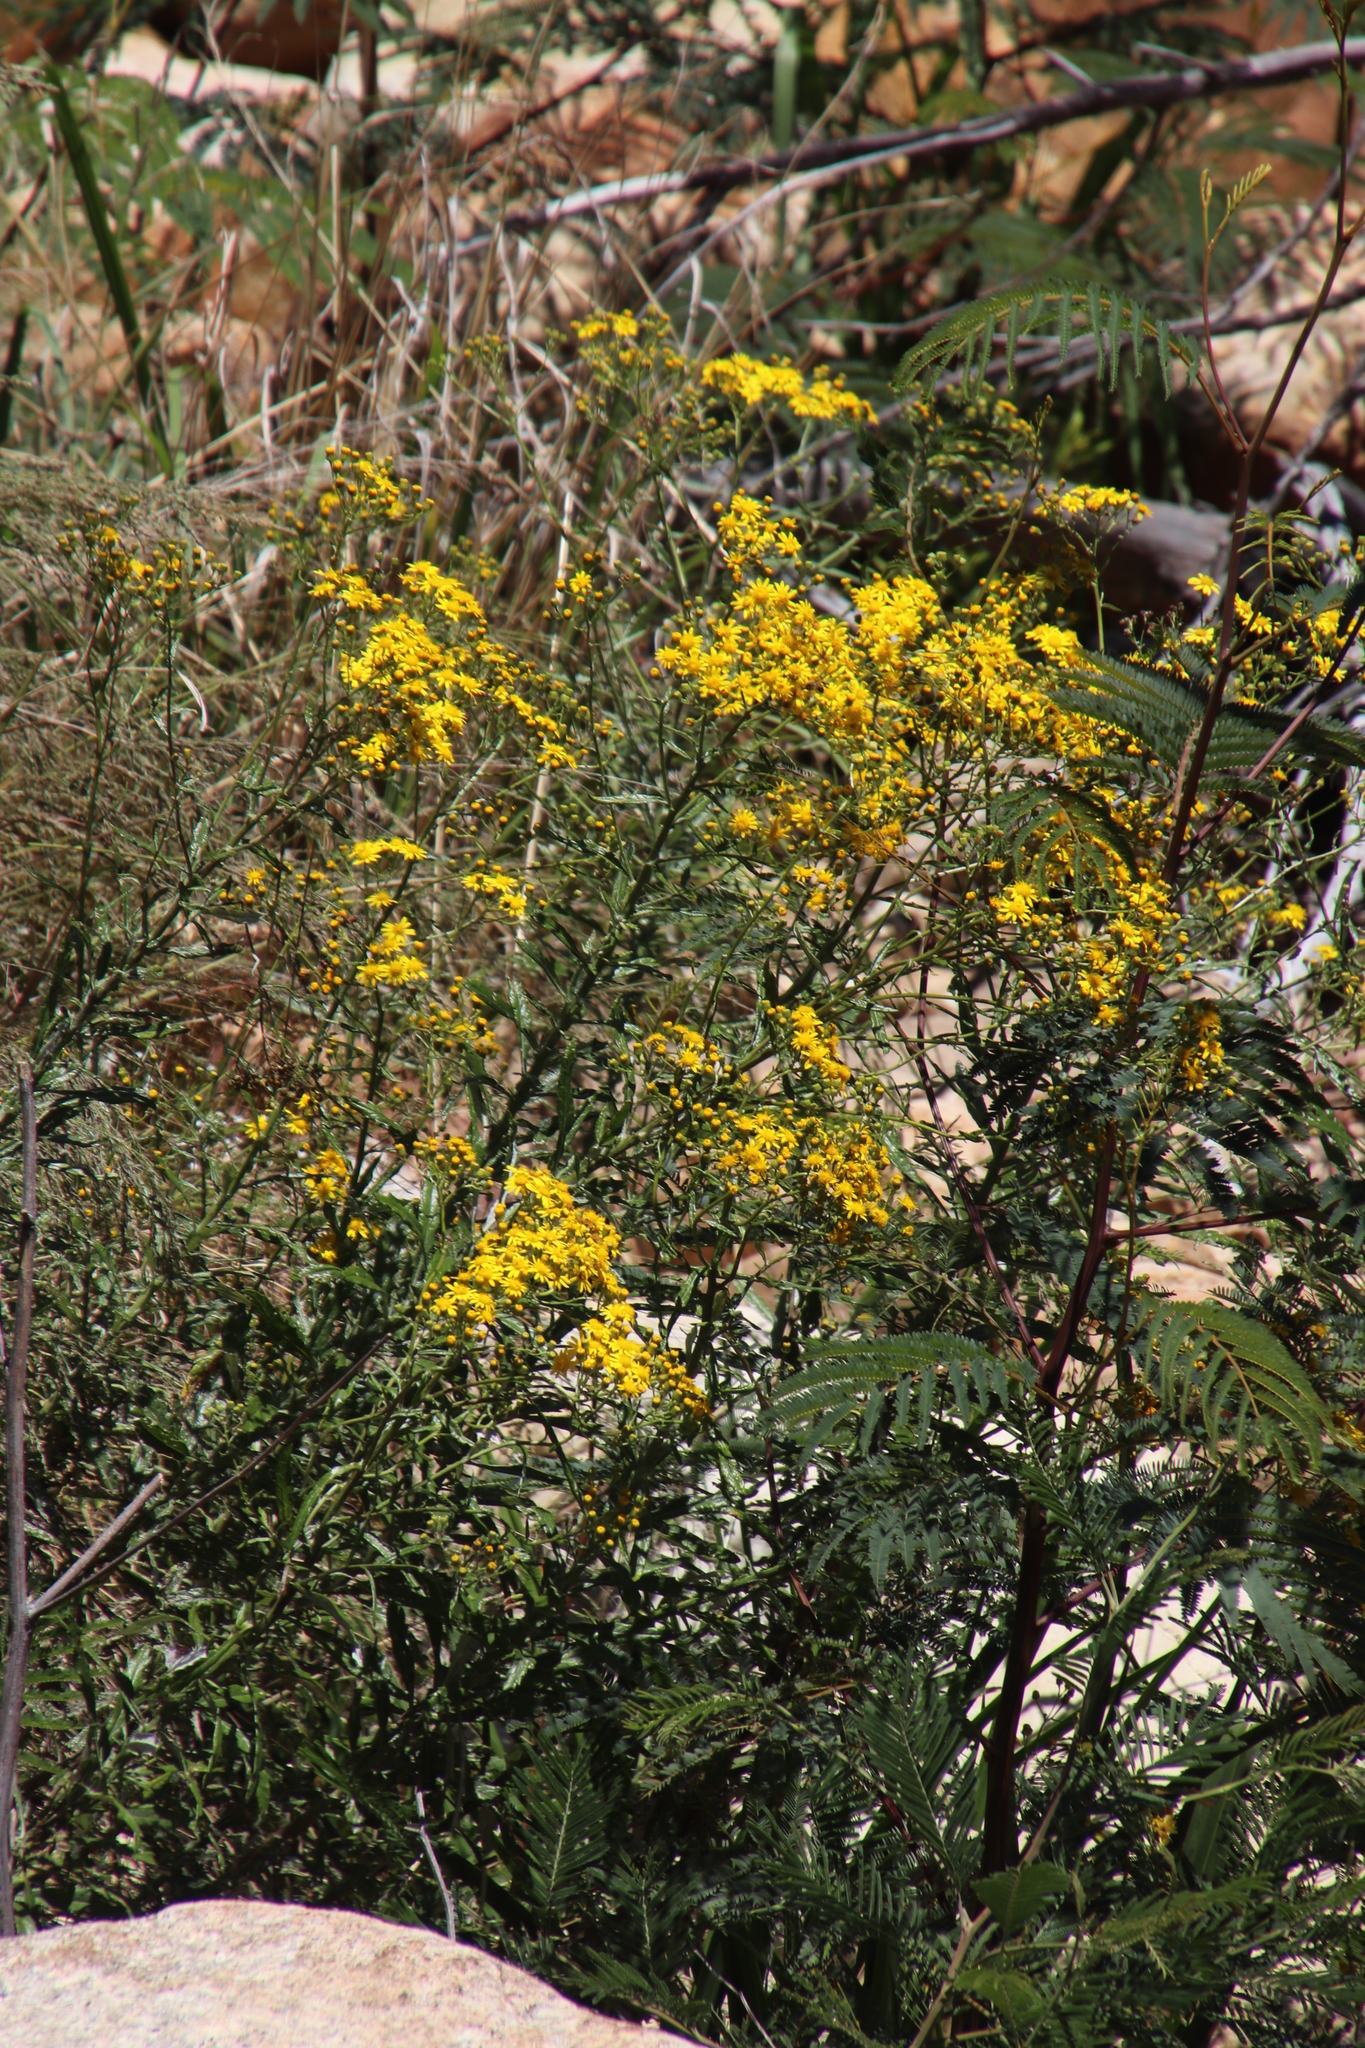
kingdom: Plantae
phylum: Tracheophyta
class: Magnoliopsida
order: Asterales
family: Asteraceae
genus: Senecio
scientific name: Senecio pterophorus
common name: Shoddy ragwort
